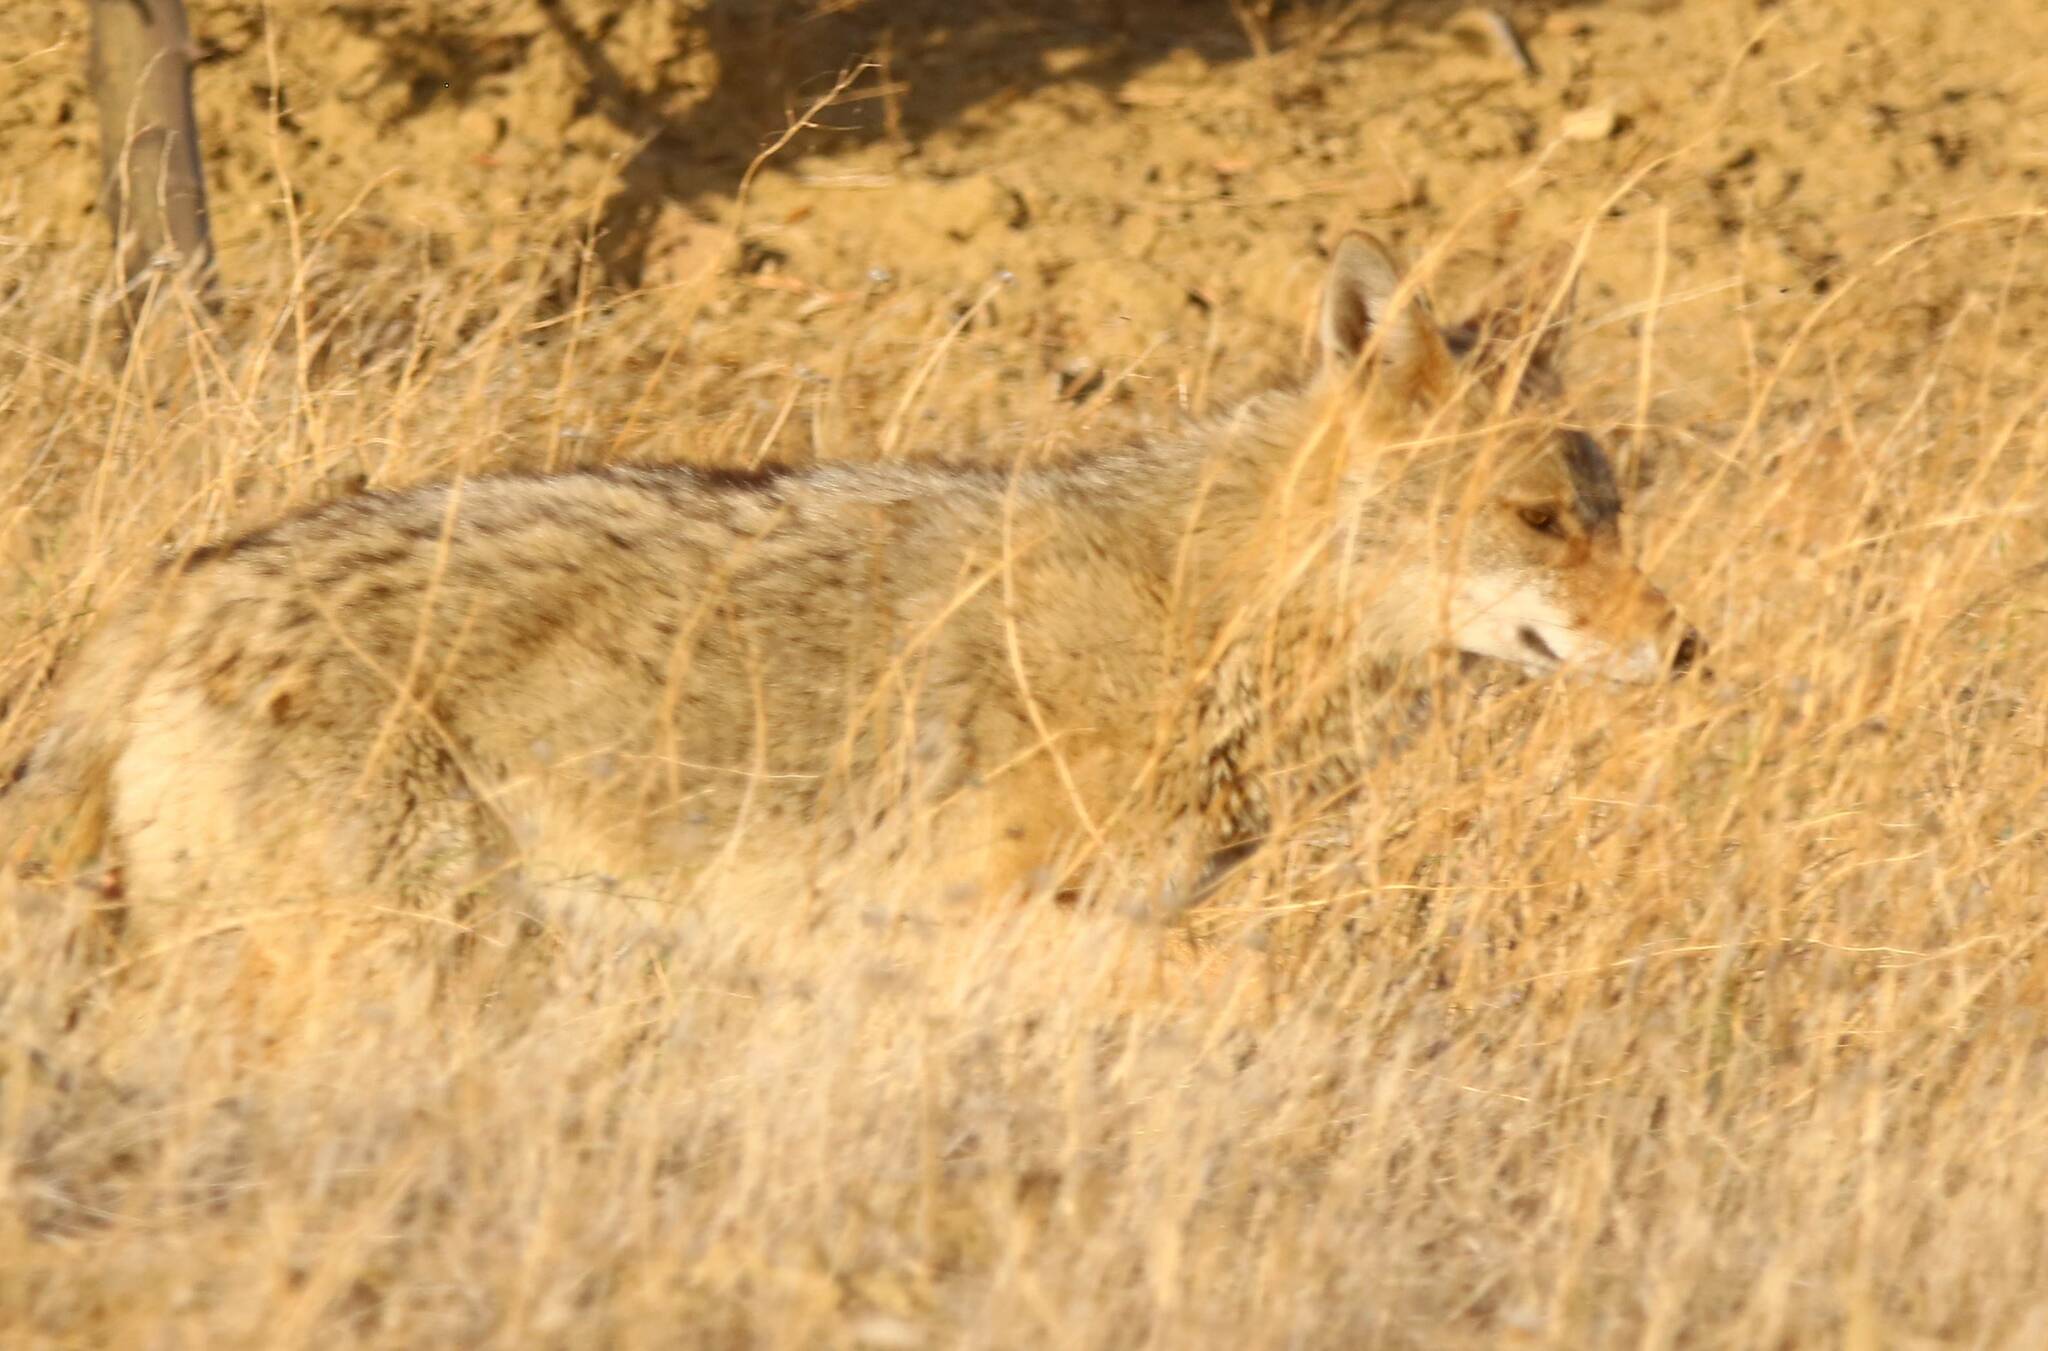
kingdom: Animalia
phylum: Chordata
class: Mammalia
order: Carnivora
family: Canidae
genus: Canis
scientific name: Canis lupaster
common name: African golden wolf
